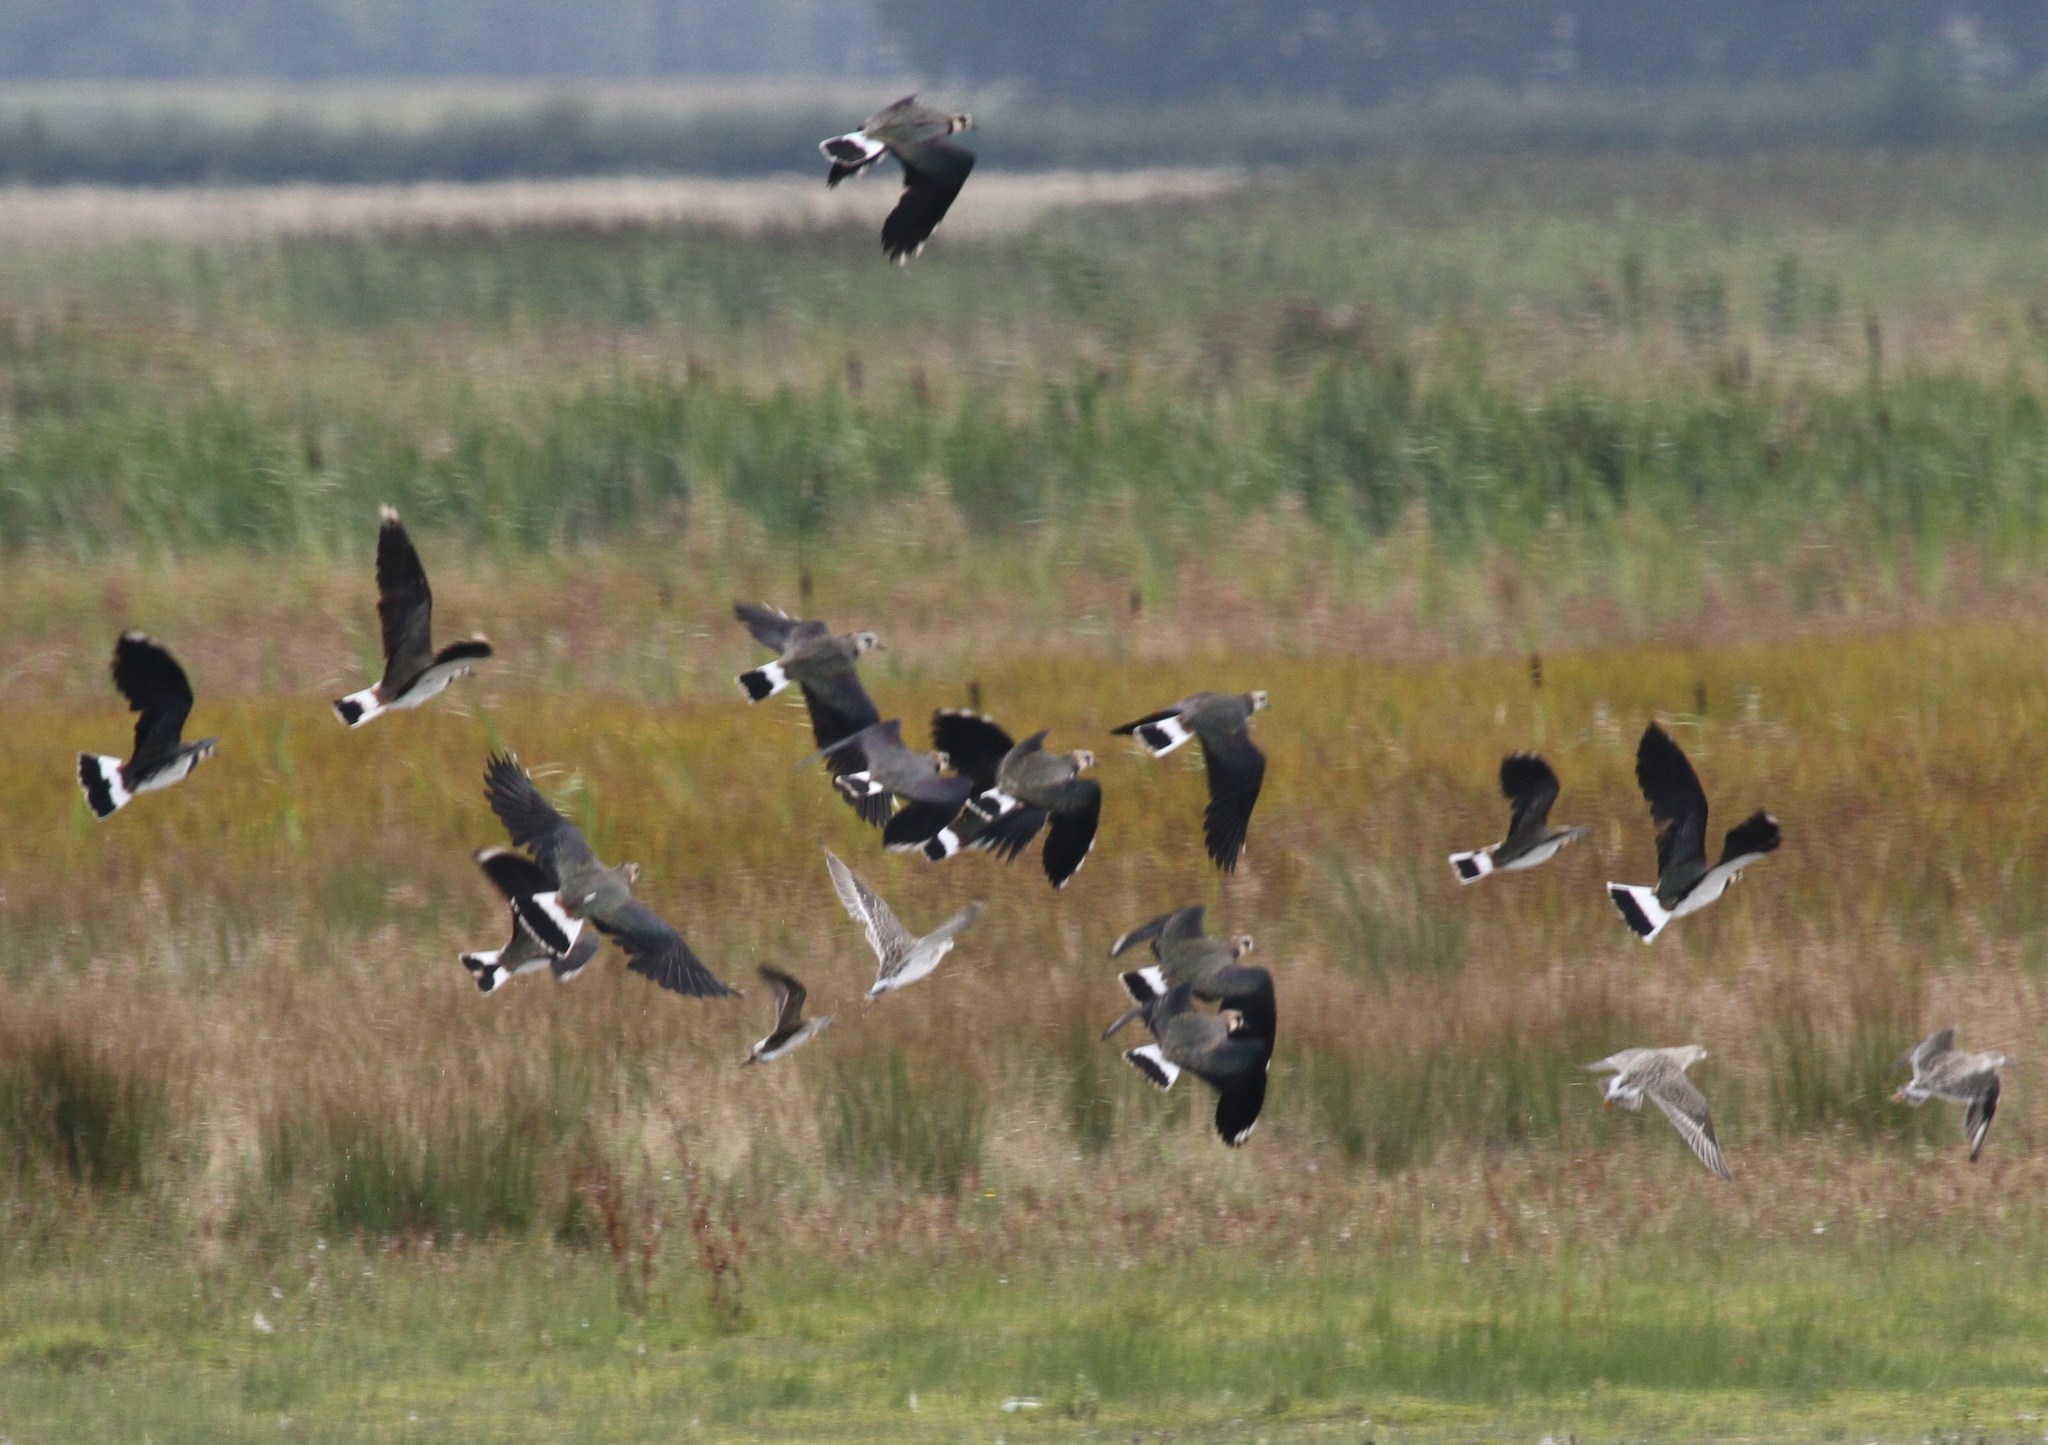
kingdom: Animalia
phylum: Chordata
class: Aves
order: Charadriiformes
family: Charadriidae
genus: Vanellus
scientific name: Vanellus vanellus
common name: Northern lapwing
